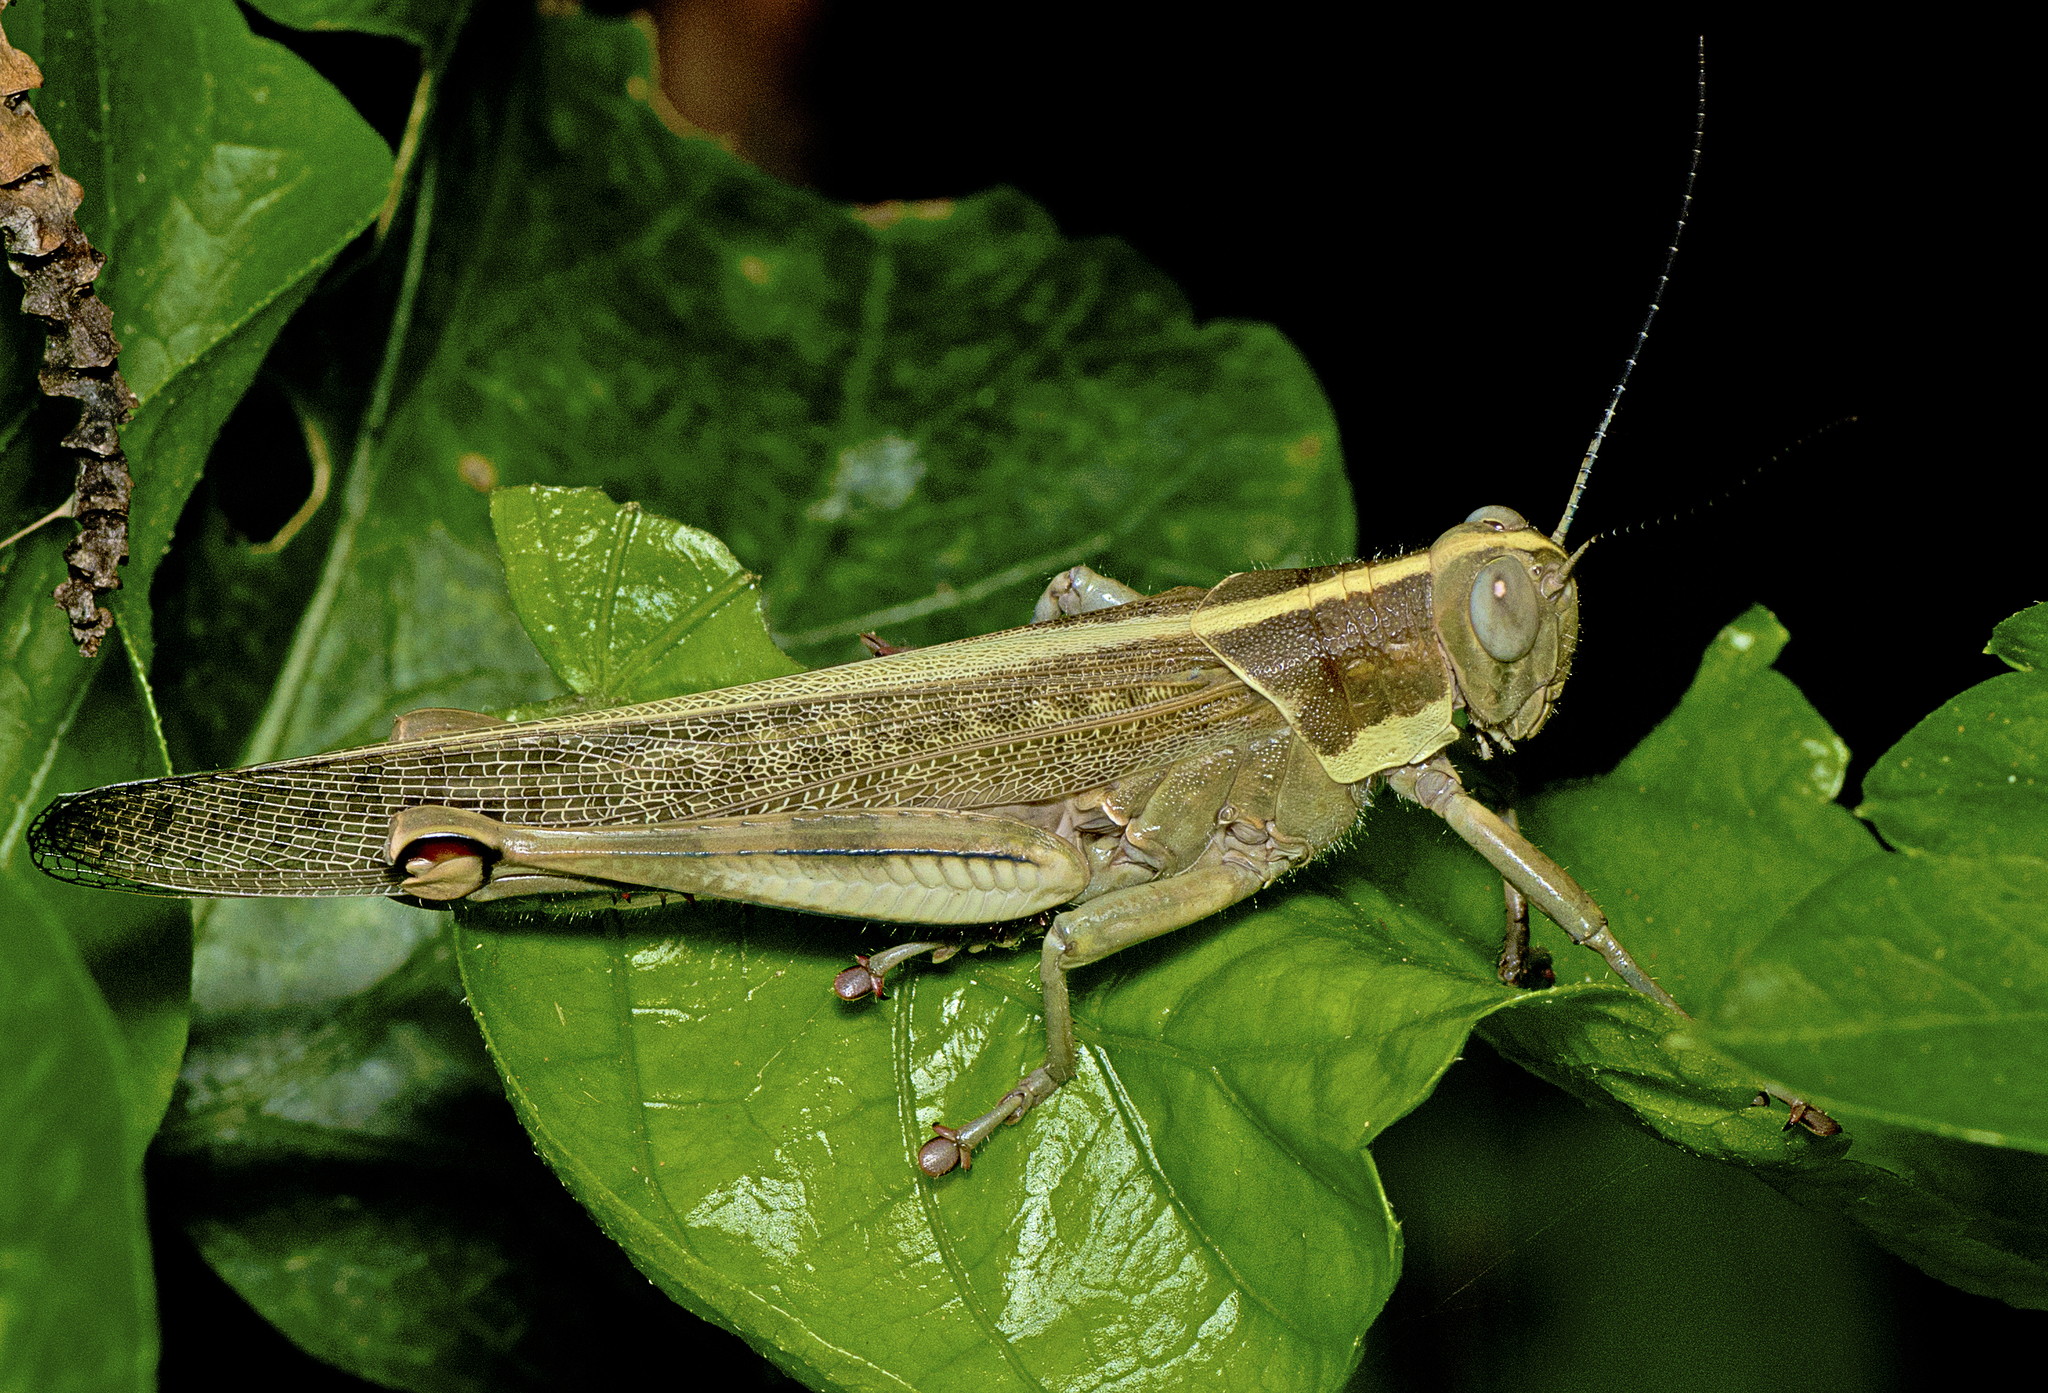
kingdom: Animalia
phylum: Arthropoda
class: Insecta
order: Orthoptera
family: Acrididae
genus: Valanga
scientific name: Valanga irregularis
